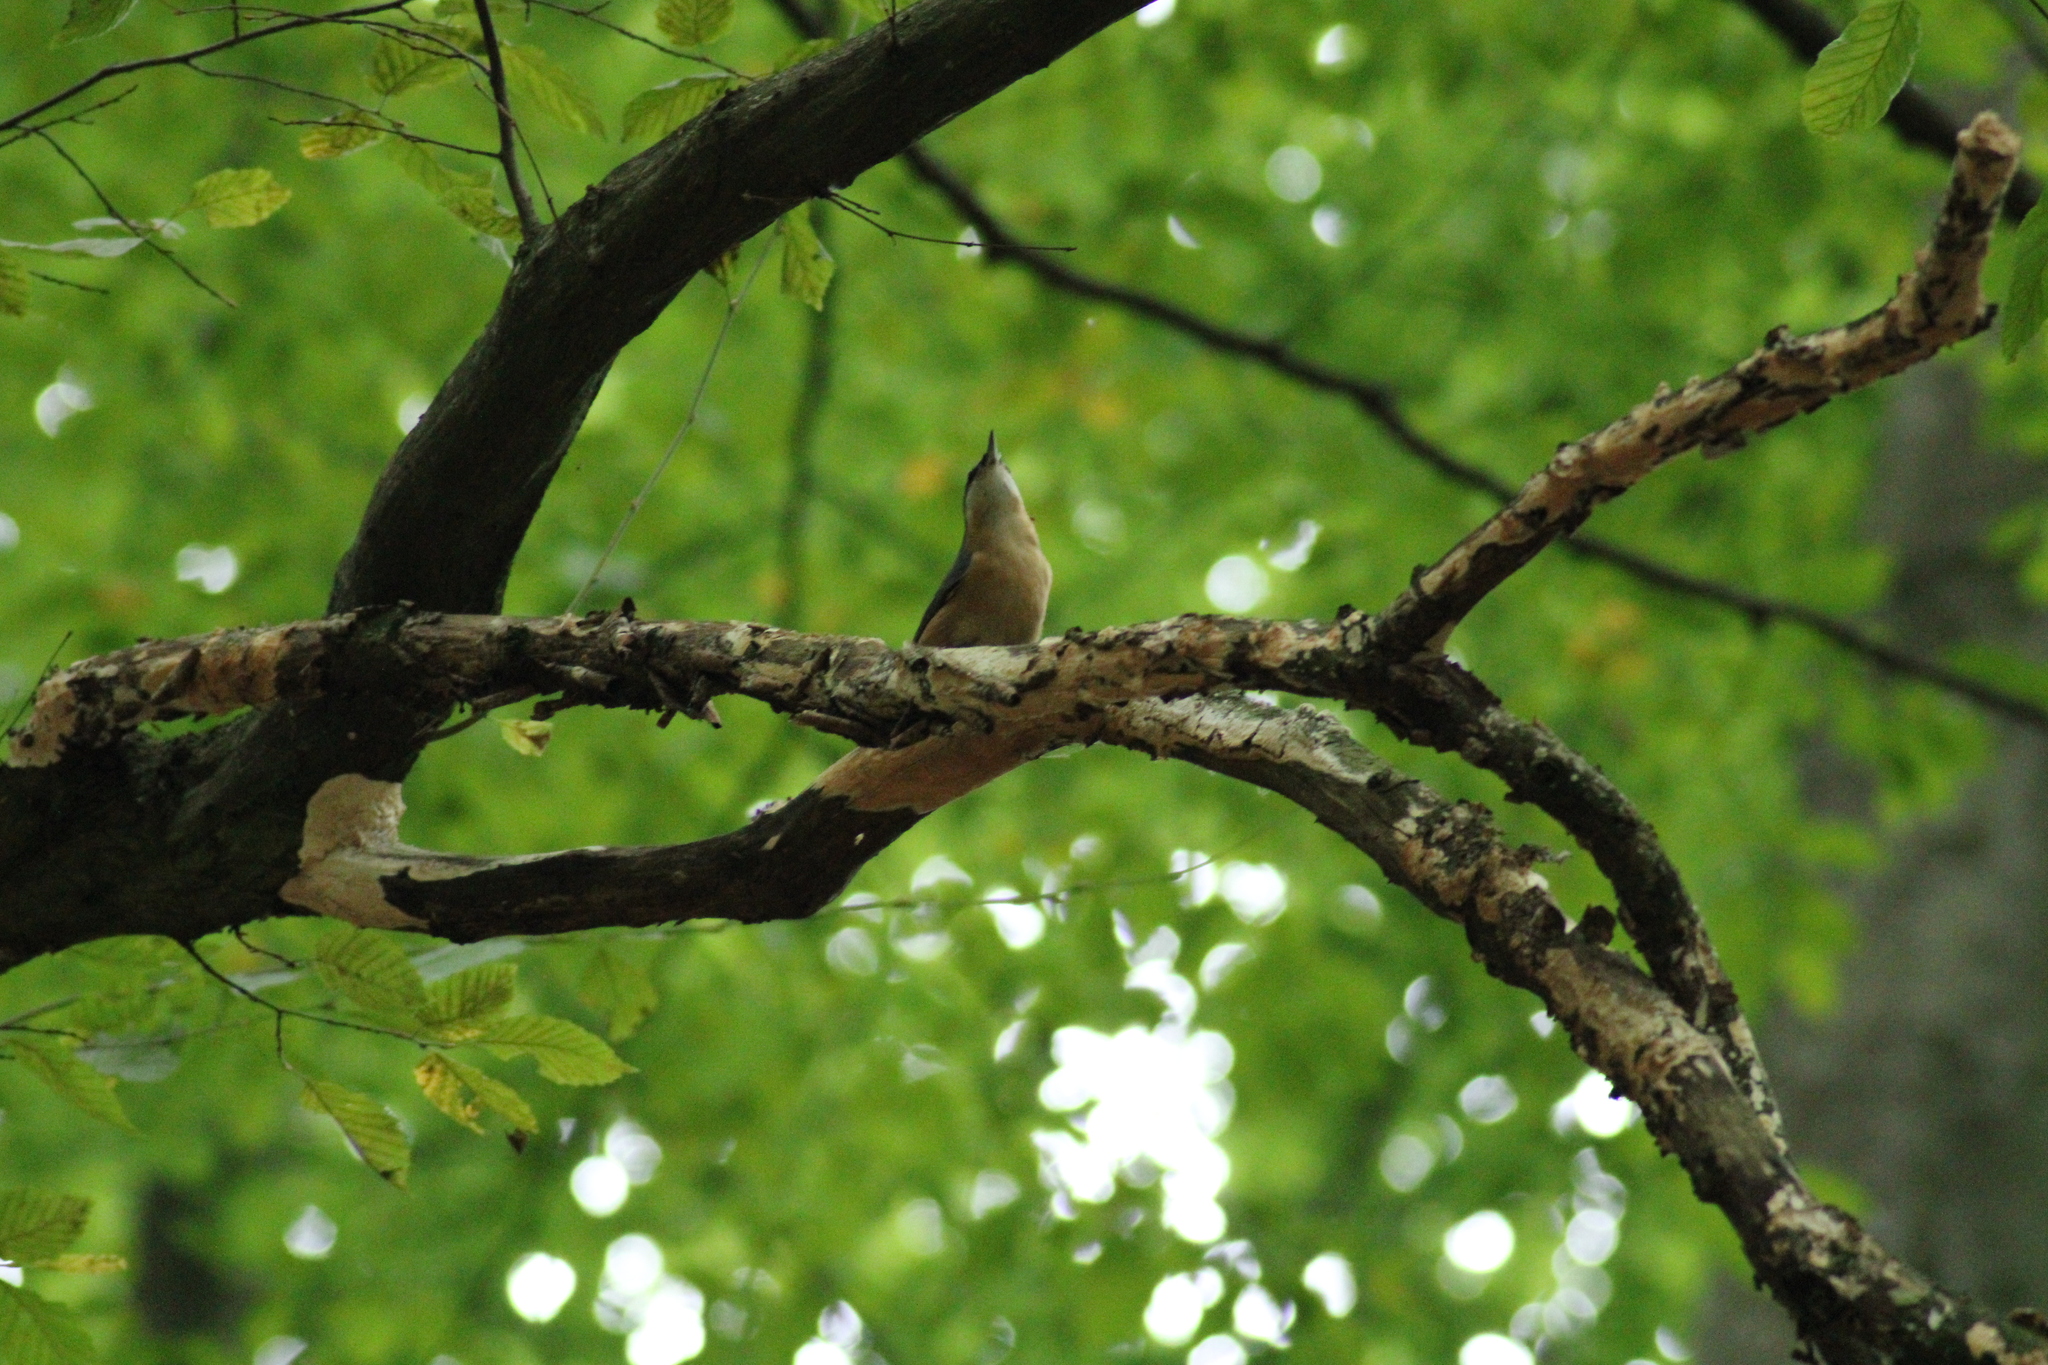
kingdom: Animalia
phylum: Chordata
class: Aves
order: Passeriformes
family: Sittidae
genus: Sitta
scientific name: Sitta europaea
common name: Eurasian nuthatch
